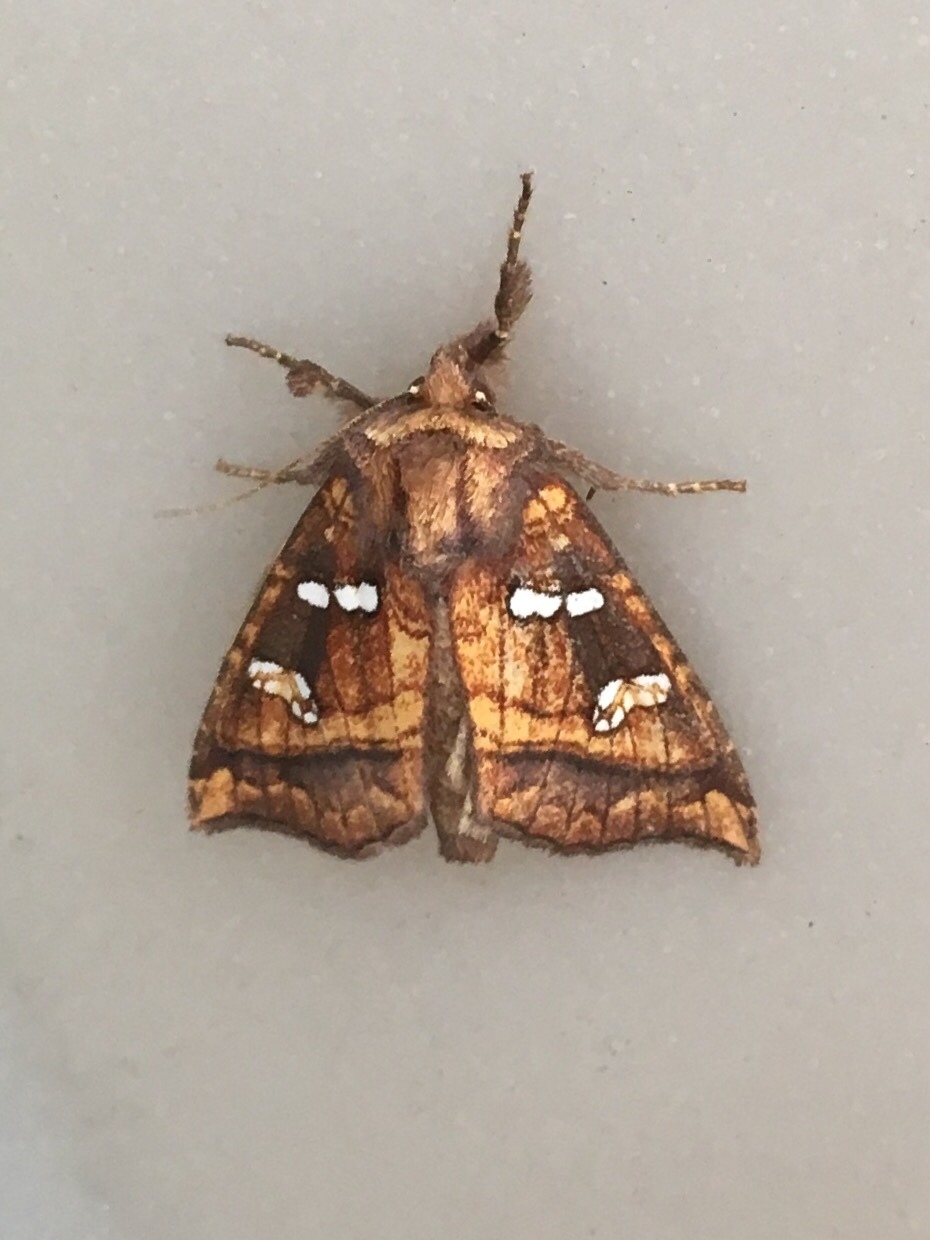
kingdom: Animalia
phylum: Arthropoda
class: Insecta
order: Lepidoptera
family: Noctuidae
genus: Papaipema
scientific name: Papaipema pterisii
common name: Bracken borer moth
